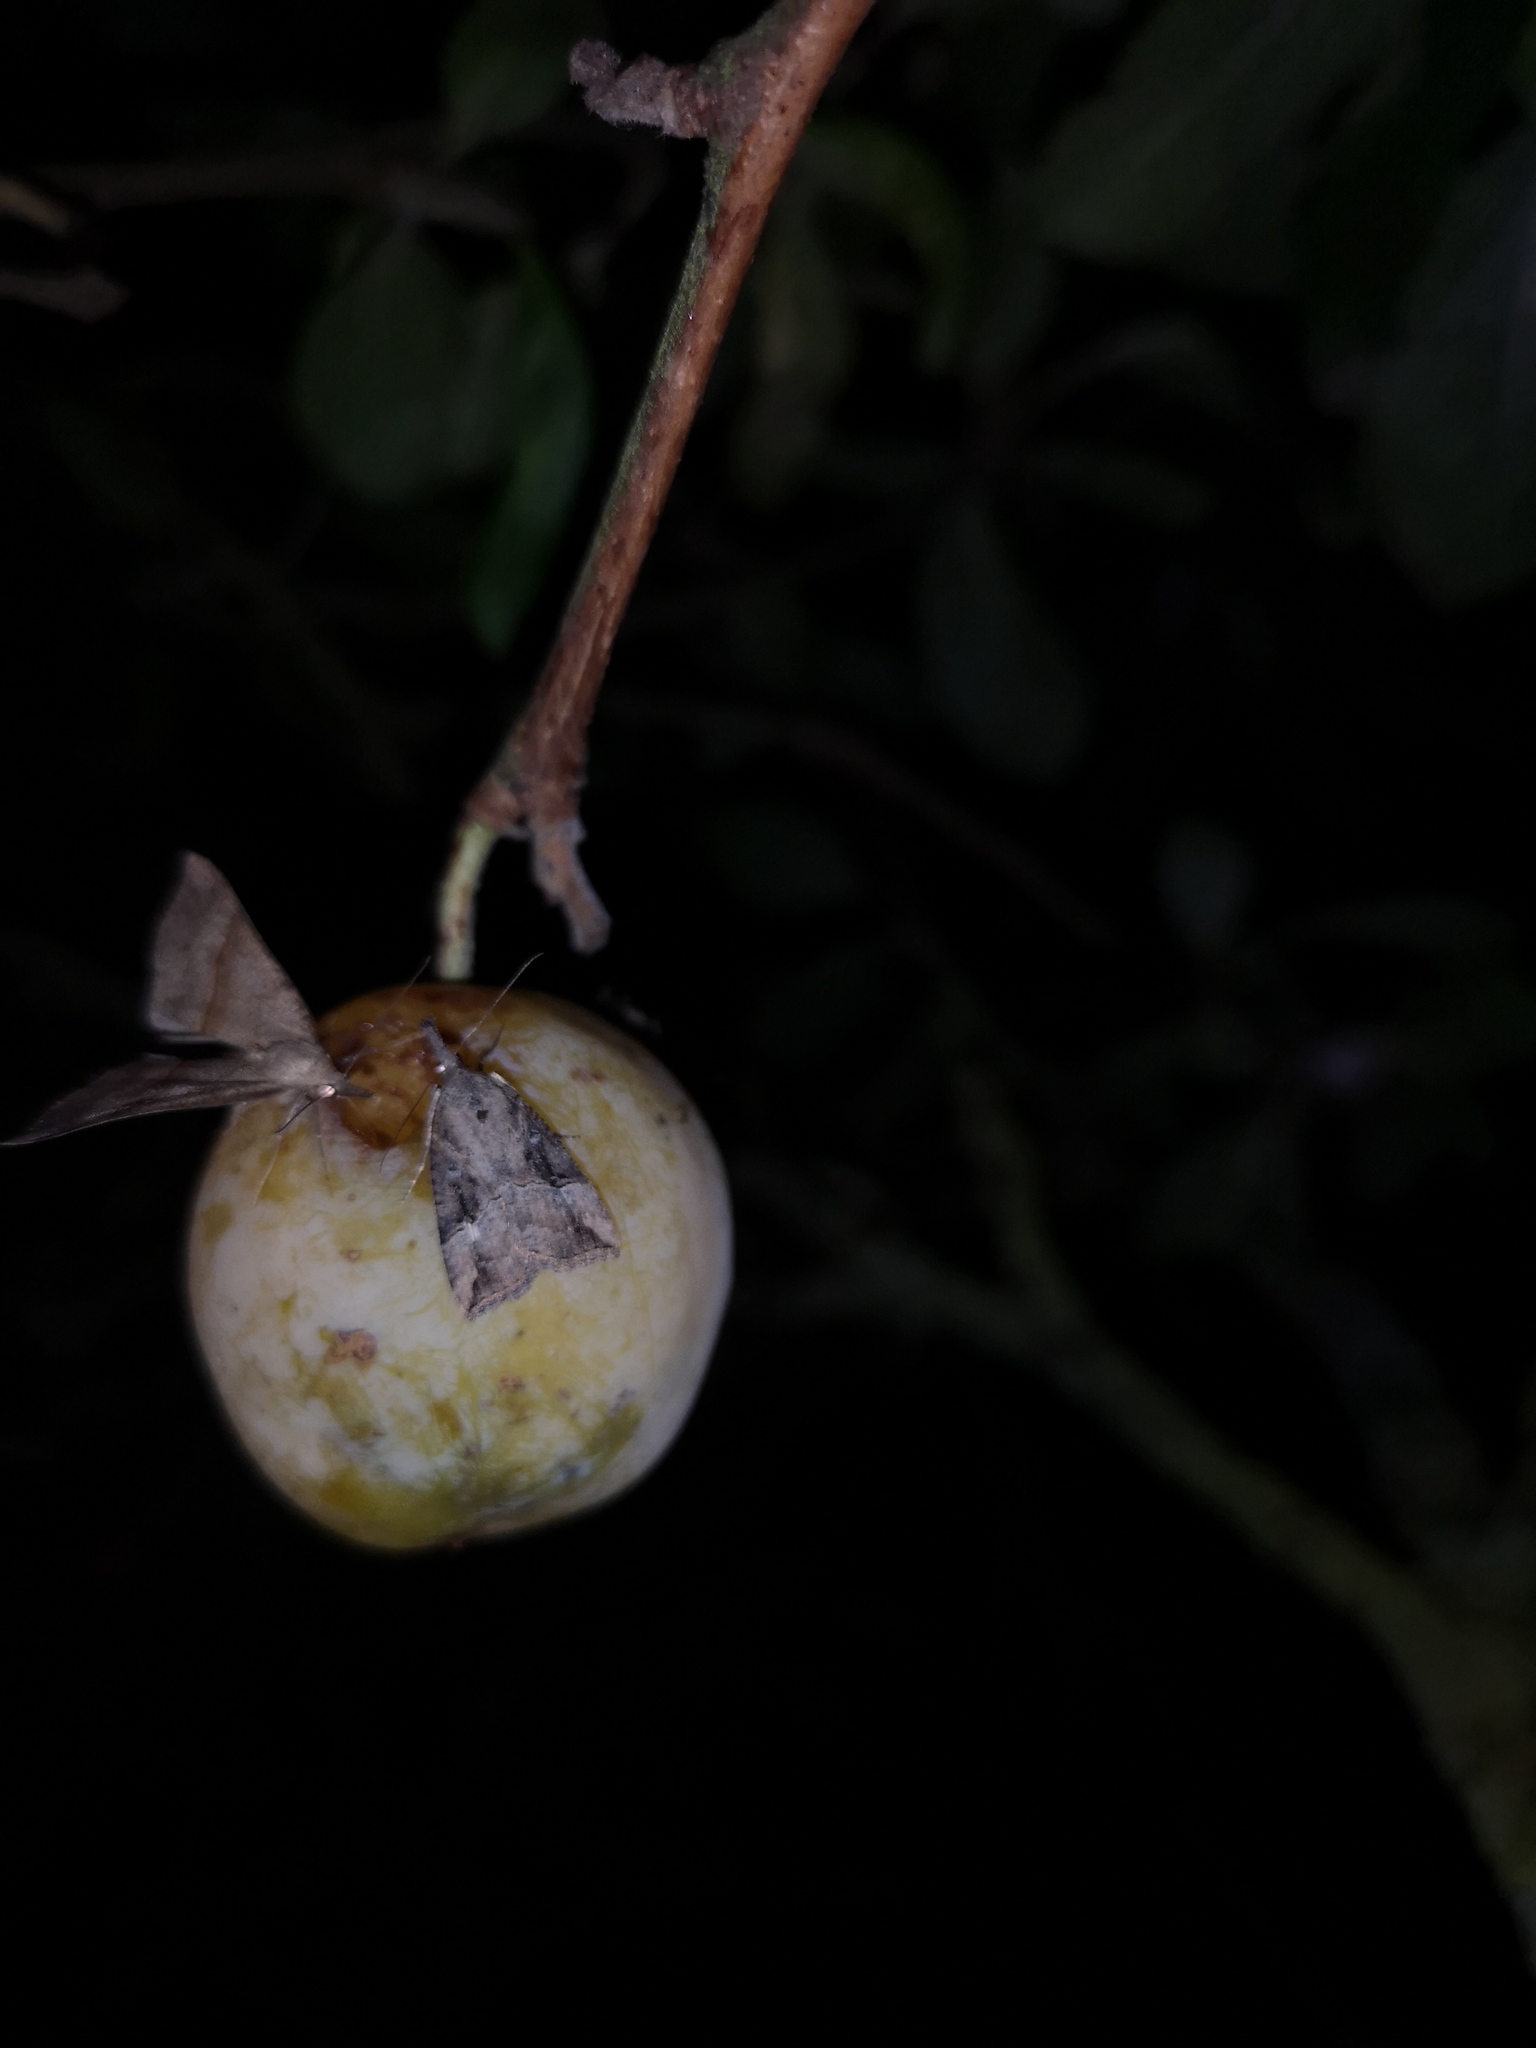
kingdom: Animalia
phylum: Arthropoda
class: Insecta
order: Lepidoptera
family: Erebidae
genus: Hypena
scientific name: Hypena rostralis
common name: Buttoned snout
